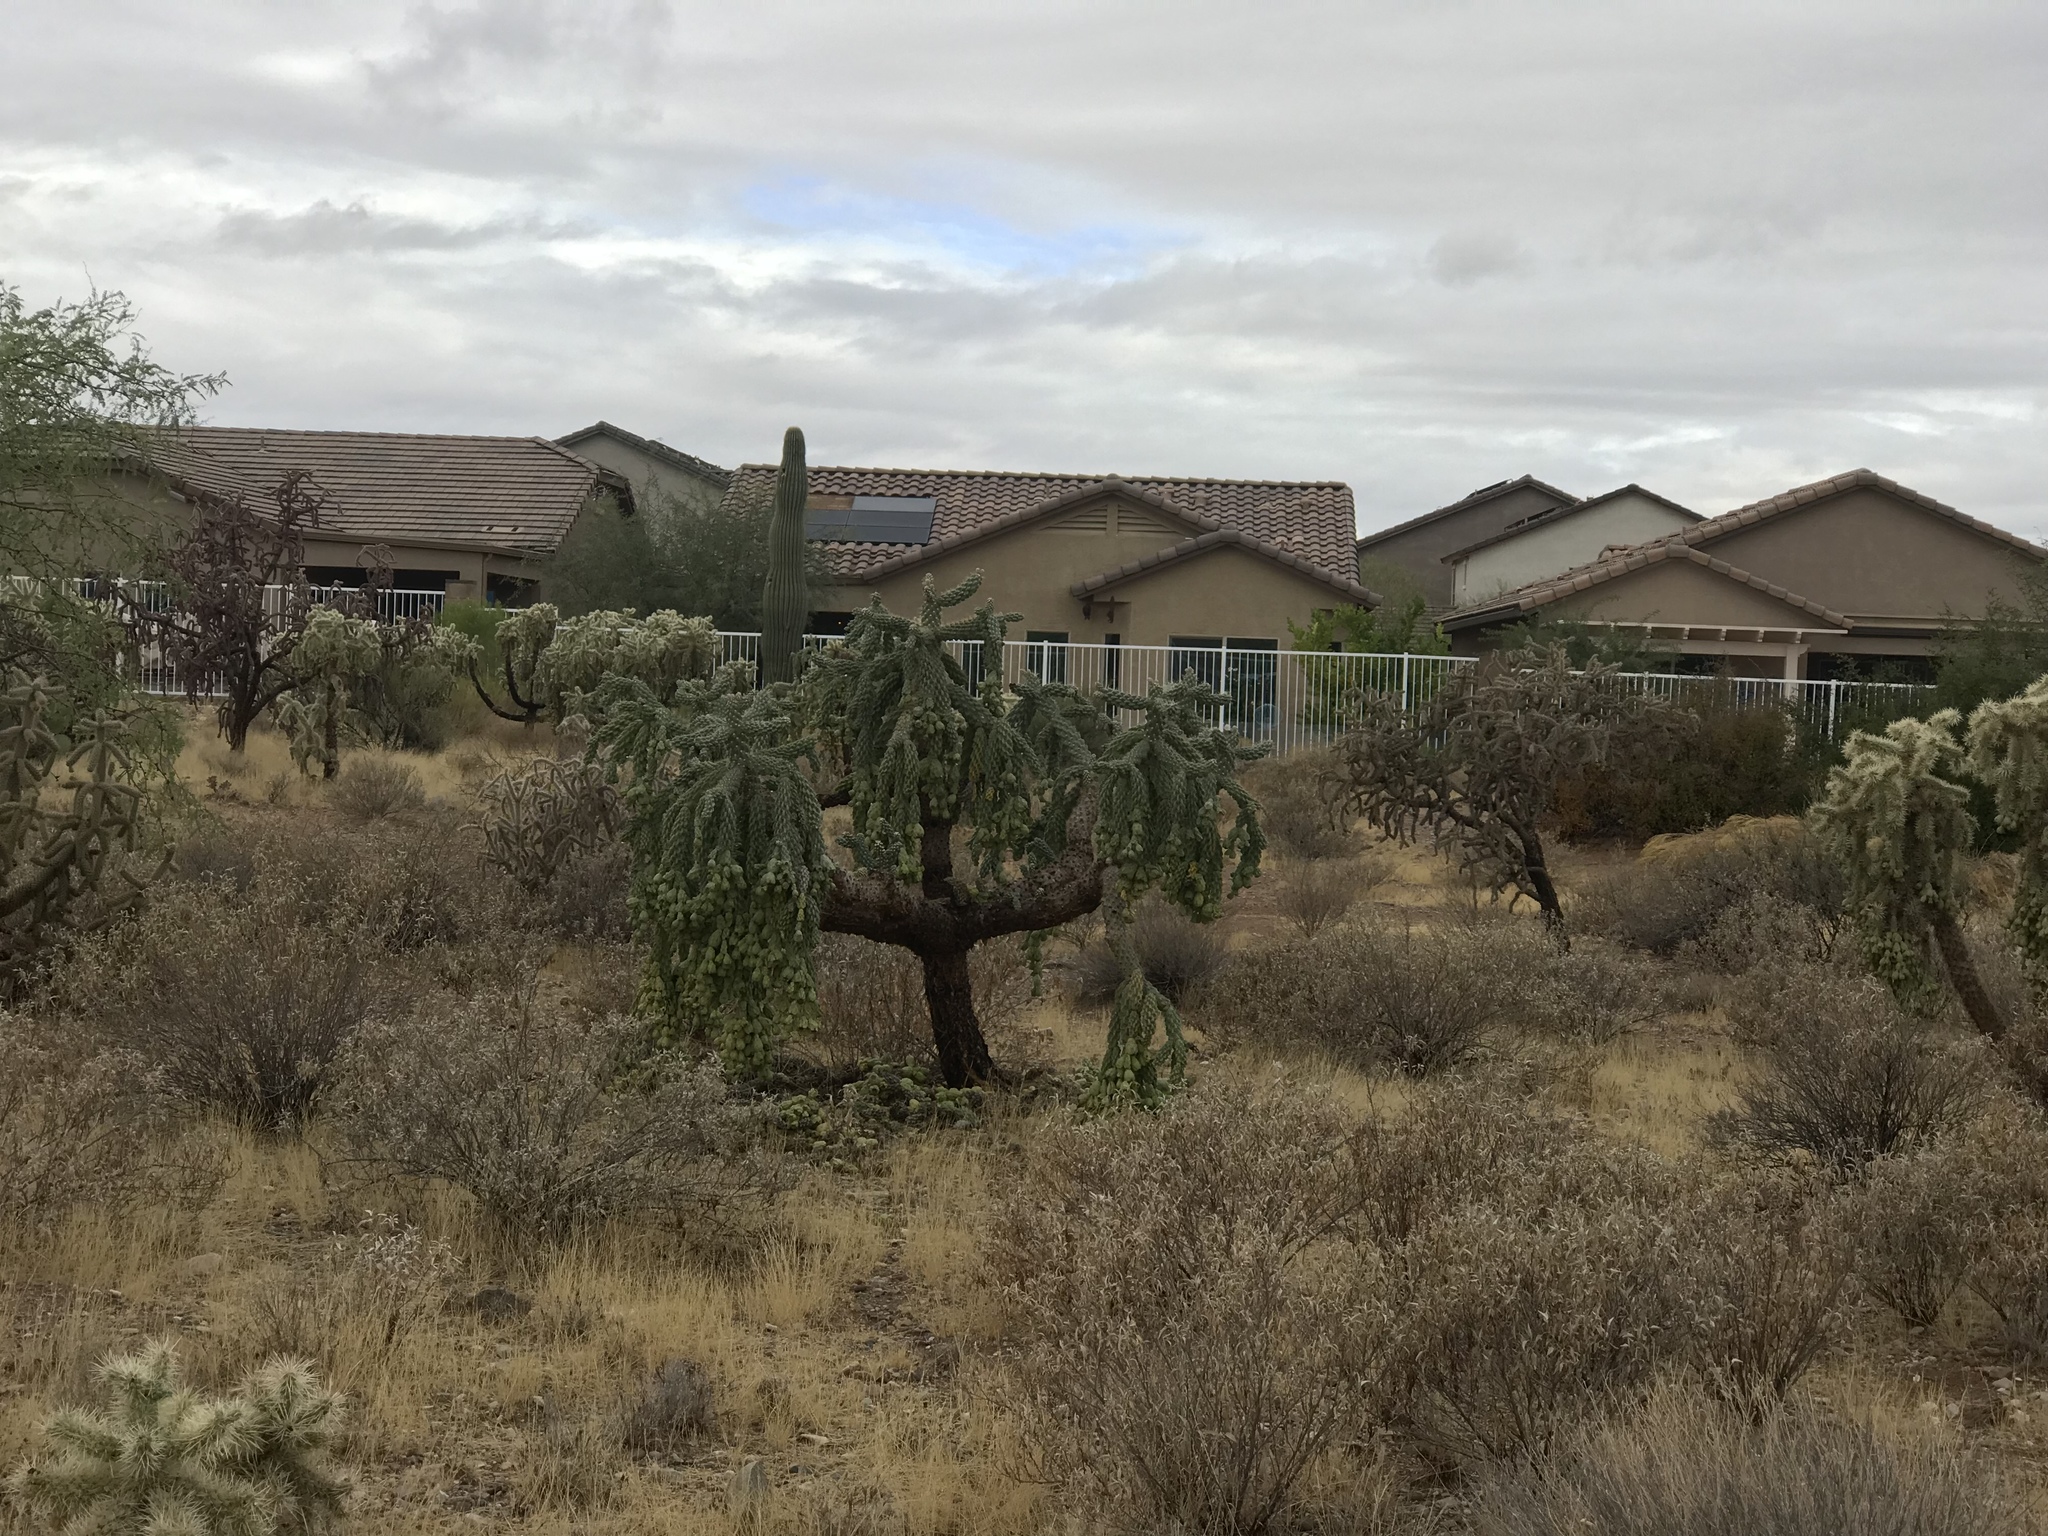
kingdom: Plantae
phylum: Tracheophyta
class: Magnoliopsida
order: Caryophyllales
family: Cactaceae
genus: Cylindropuntia
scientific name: Cylindropuntia fulgida
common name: Jumping cholla
